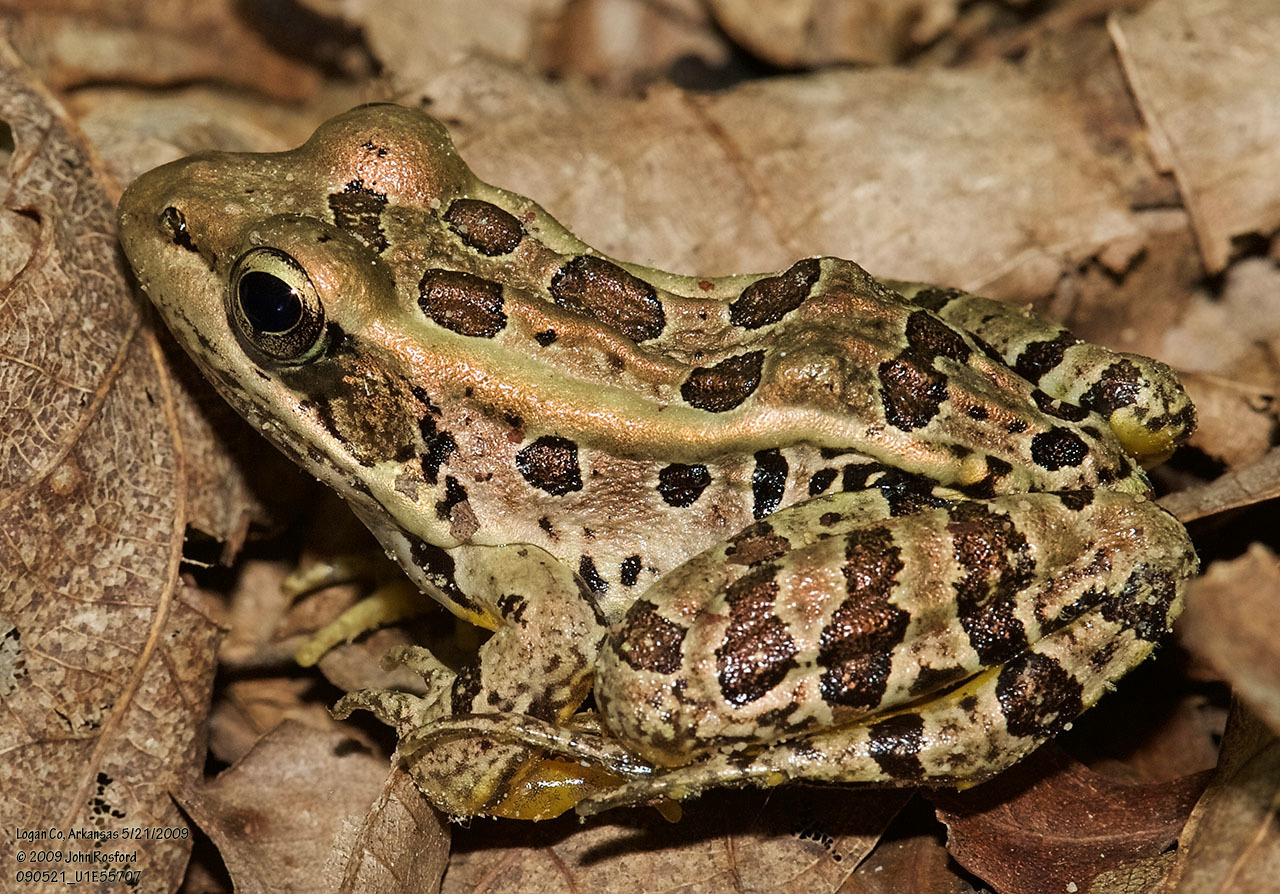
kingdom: Animalia
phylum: Chordata
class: Amphibia
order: Anura
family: Ranidae
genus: Lithobates
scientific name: Lithobates palustris
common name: Pickerel frog
